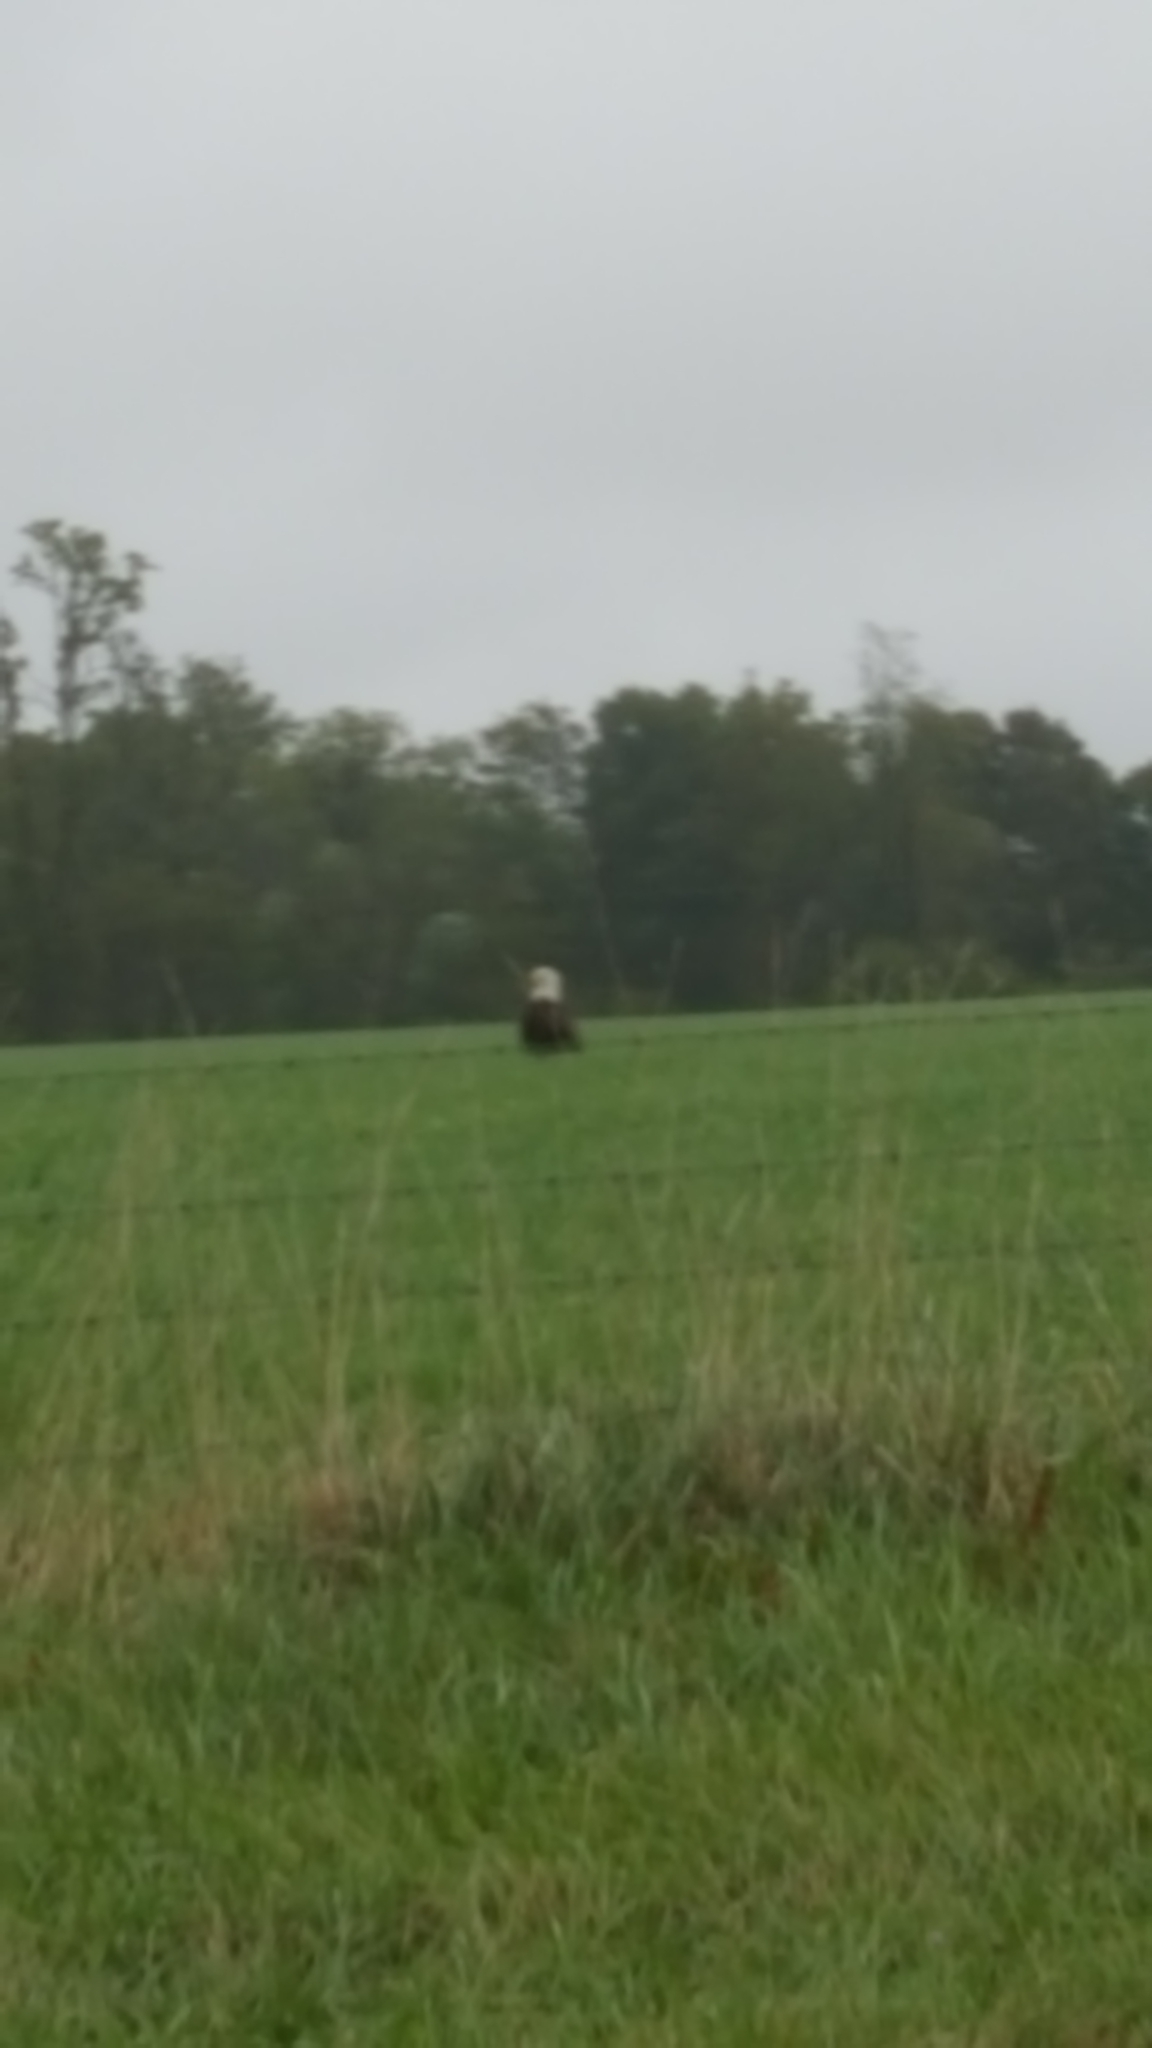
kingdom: Animalia
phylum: Chordata
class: Aves
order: Accipitriformes
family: Accipitridae
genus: Haliaeetus
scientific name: Haliaeetus leucocephalus
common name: Bald eagle
